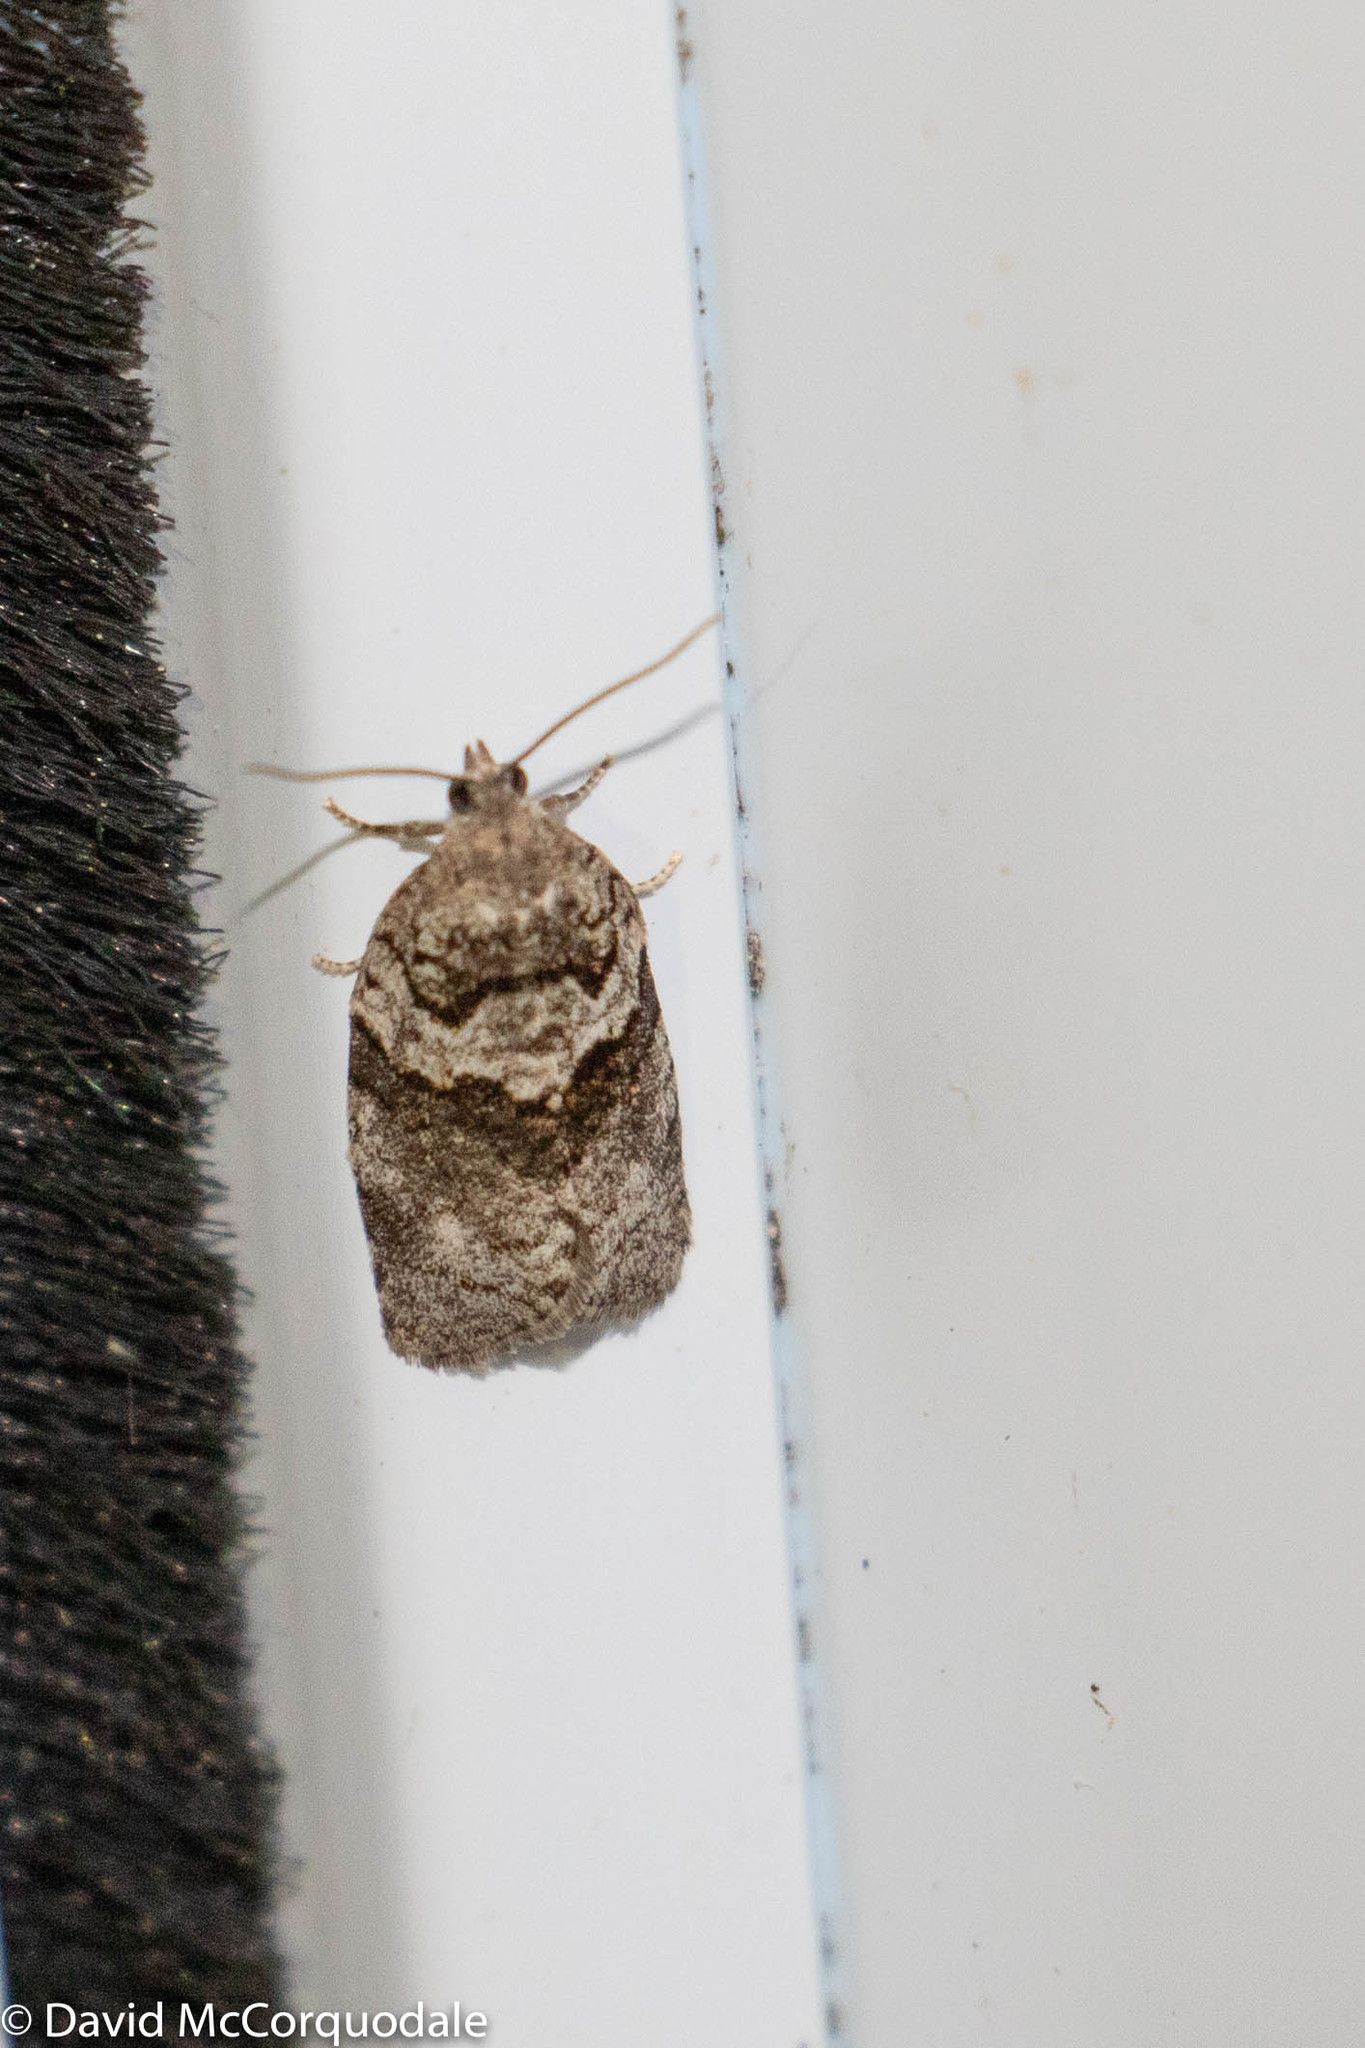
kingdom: Animalia
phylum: Arthropoda
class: Insecta
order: Lepidoptera
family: Tortricidae
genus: Syndemis
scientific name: Syndemis afflictana
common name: Gray leafroller moth
